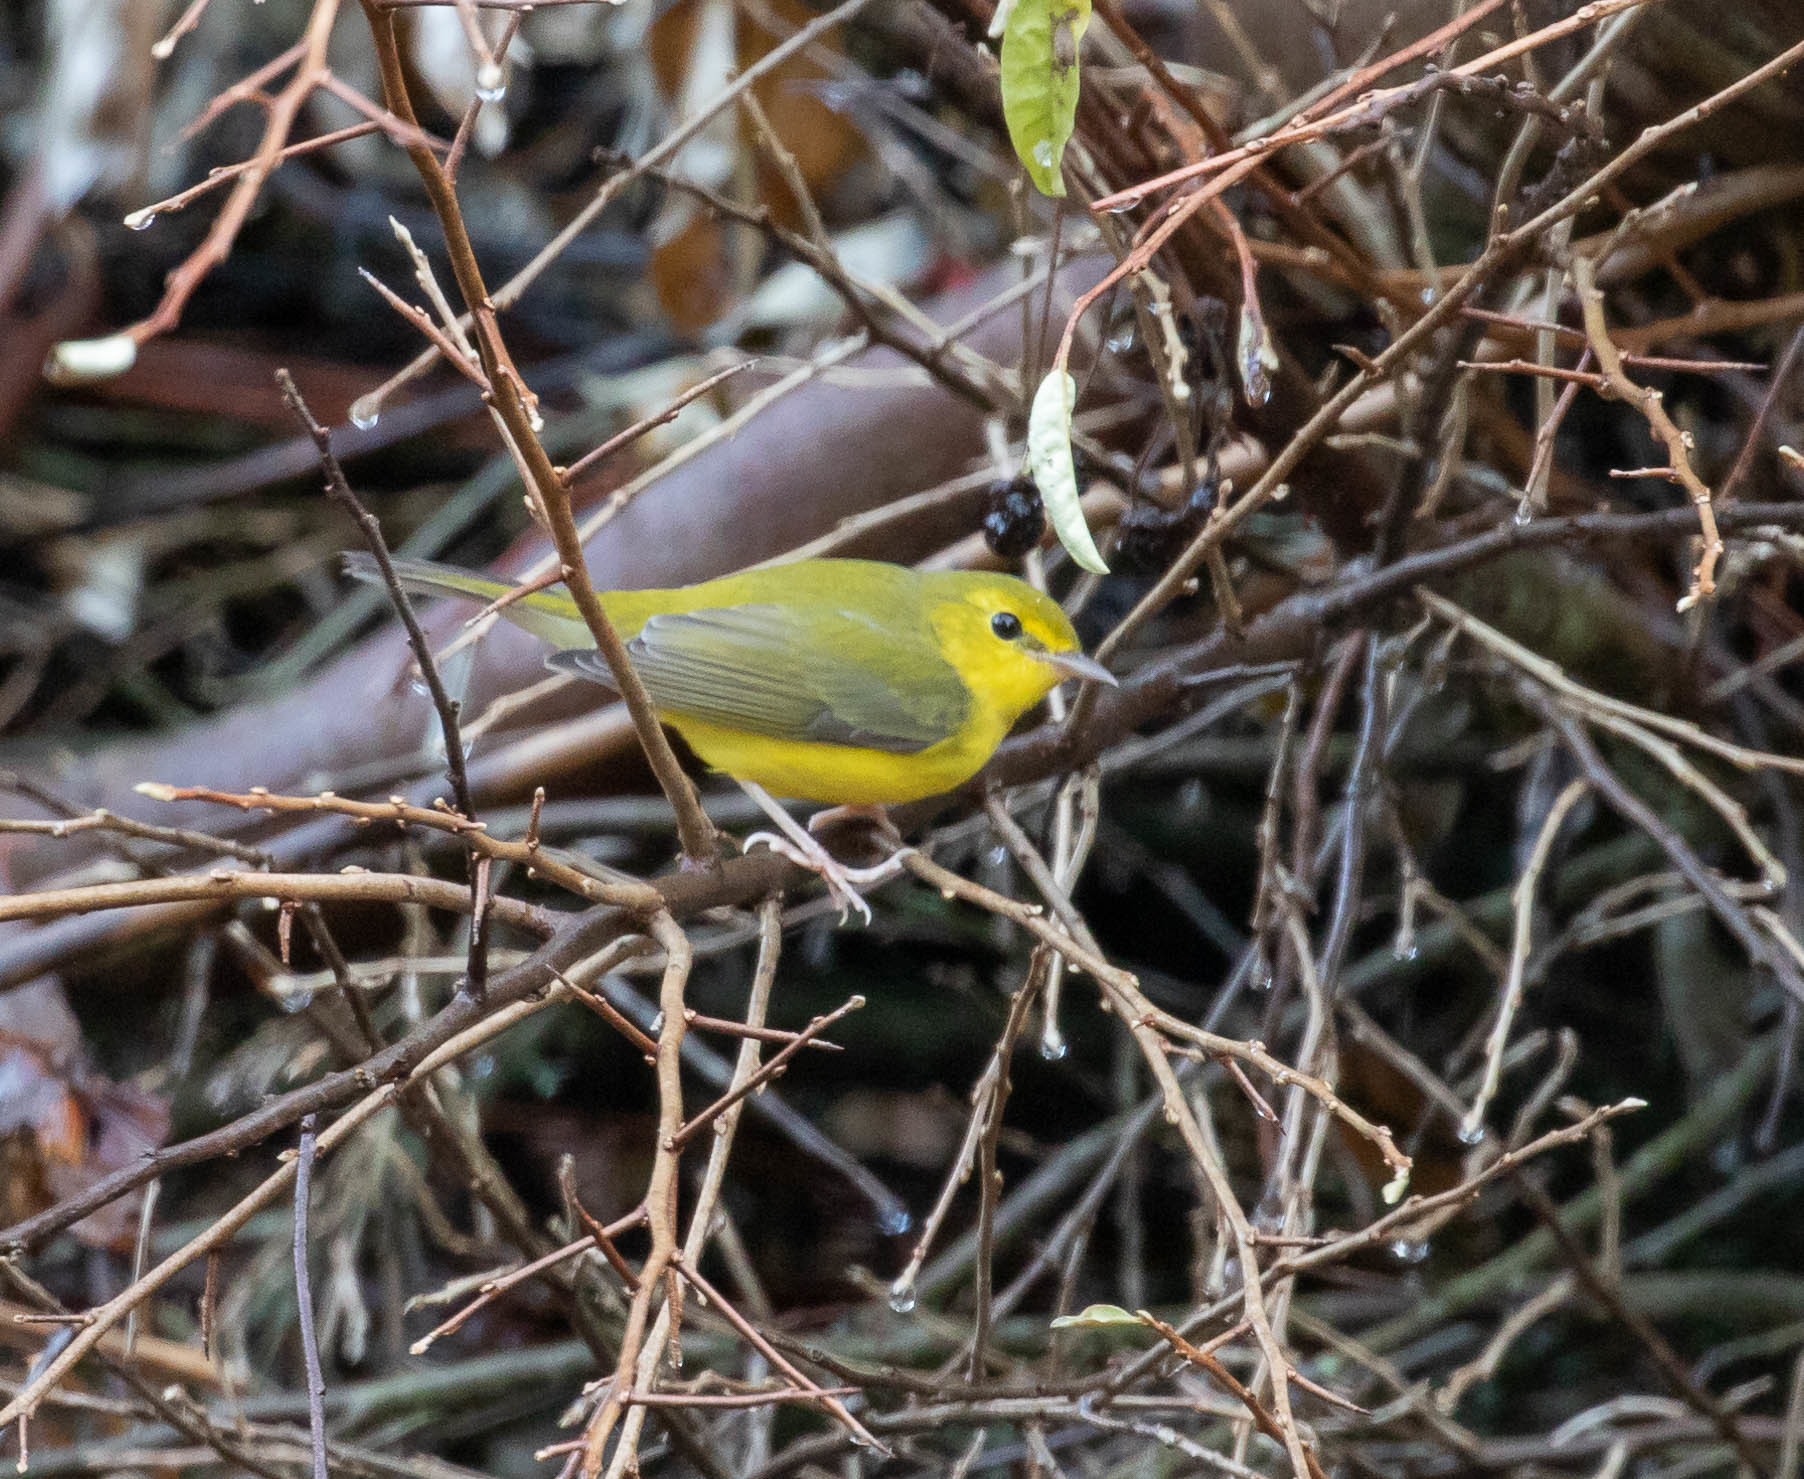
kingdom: Animalia
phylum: Chordata
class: Aves
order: Passeriformes
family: Parulidae
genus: Setophaga
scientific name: Setophaga citrina
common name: Hooded warbler
